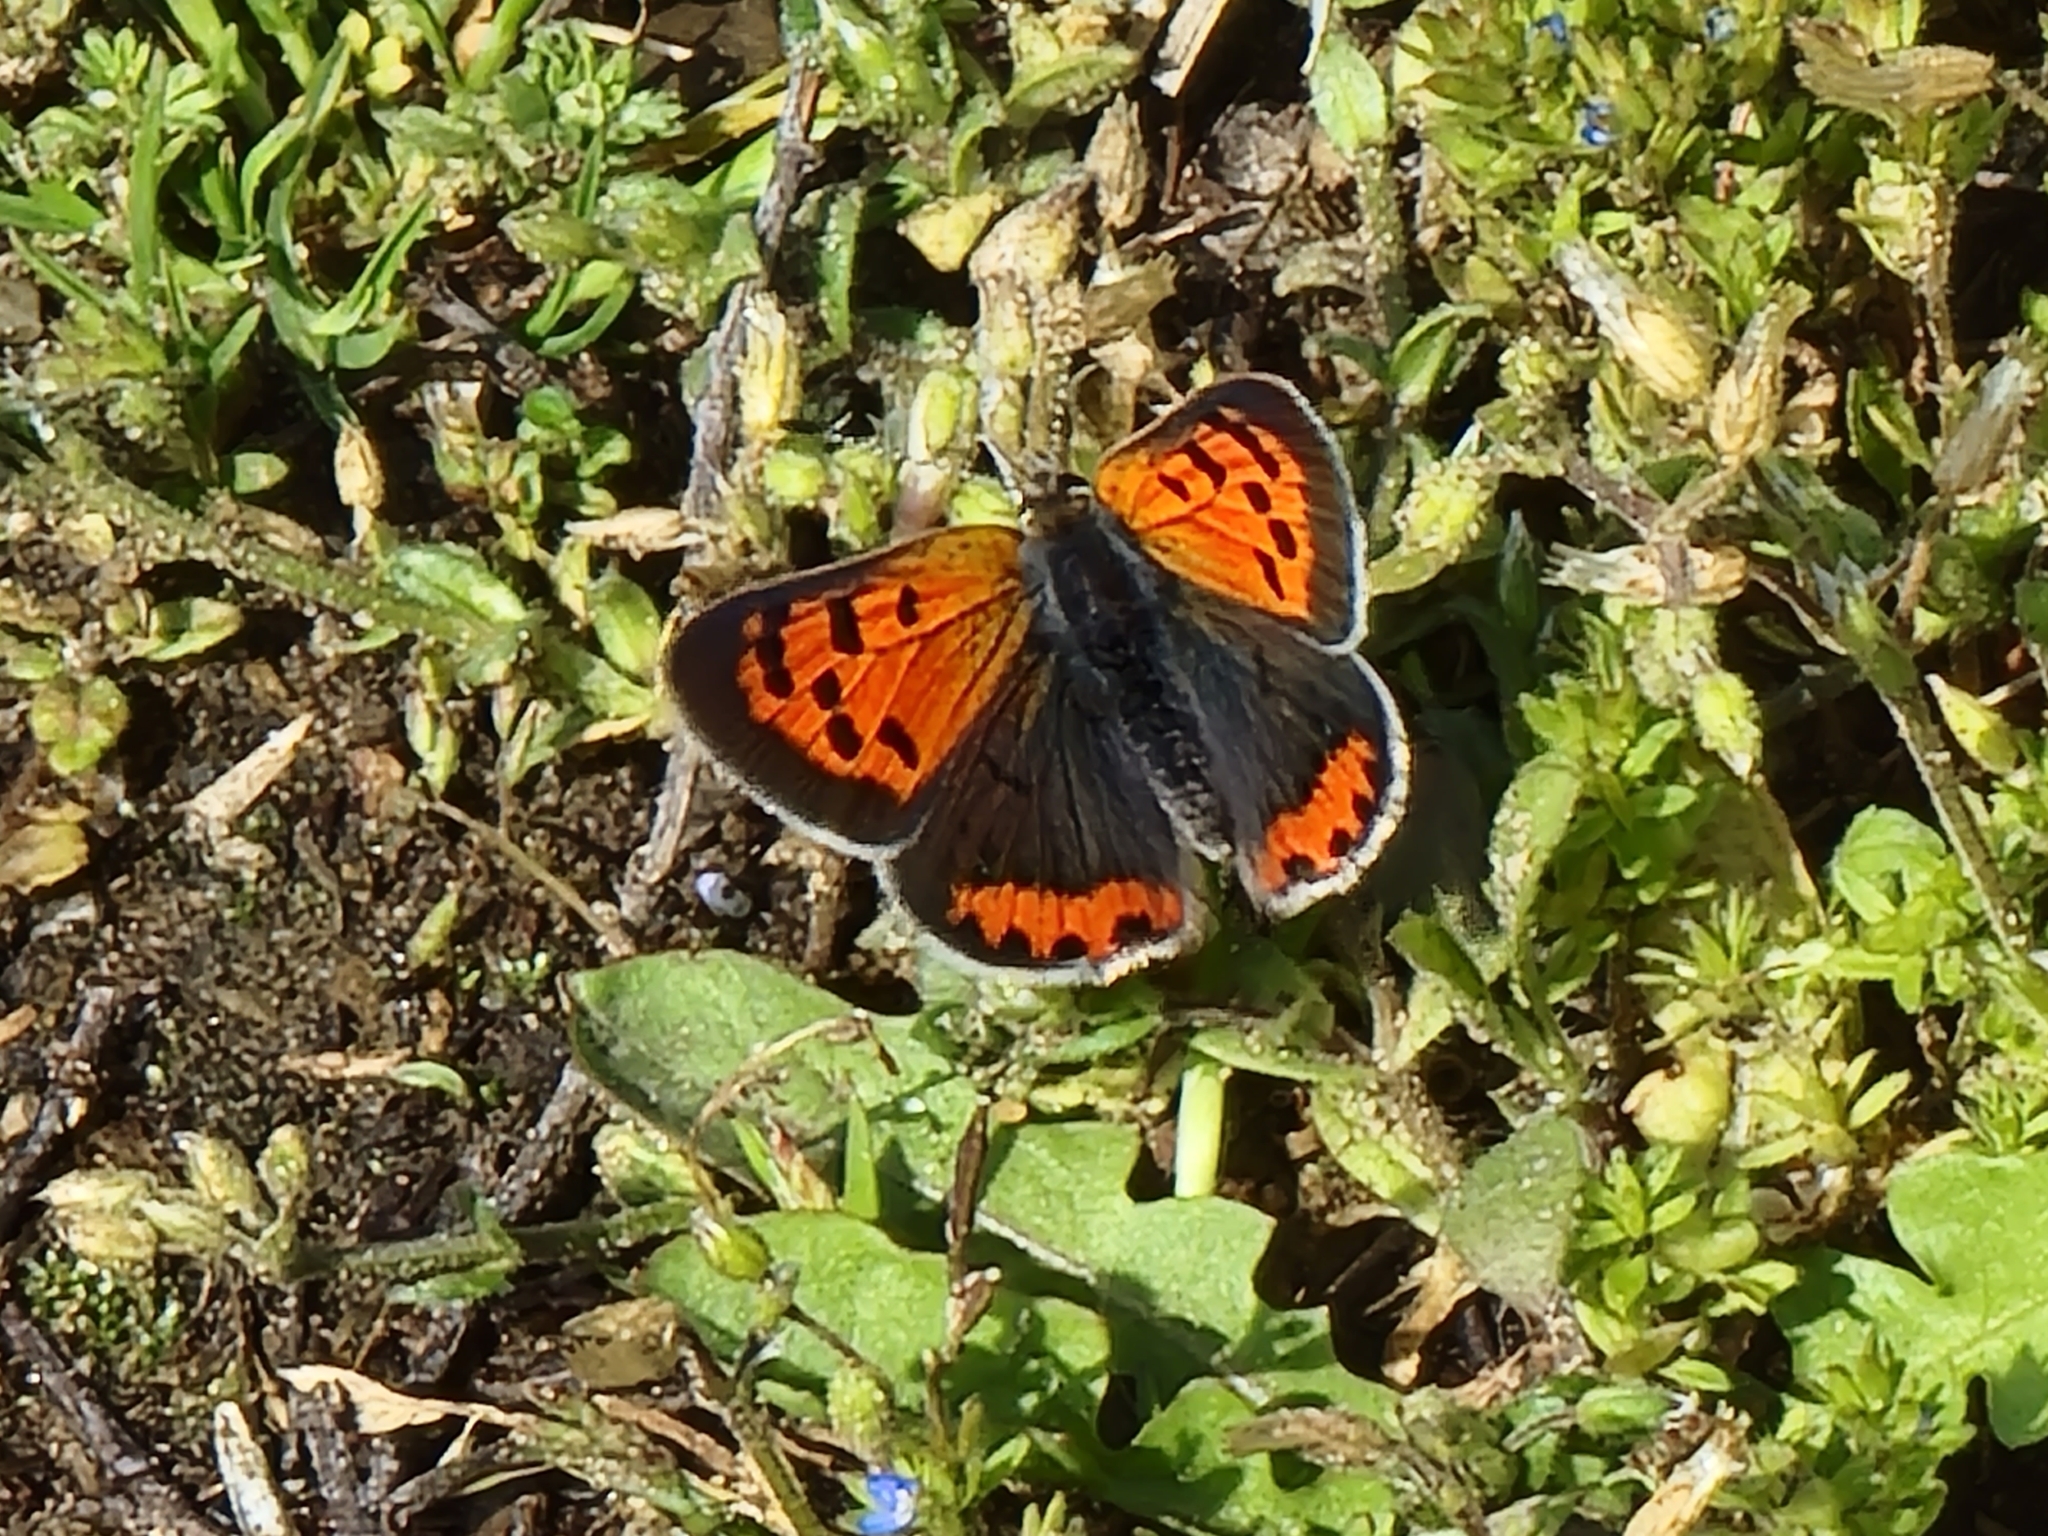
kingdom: Animalia
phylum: Arthropoda
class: Insecta
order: Lepidoptera
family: Lycaenidae
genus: Lycaena
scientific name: Lycaena hypophlaeas
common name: American copper
